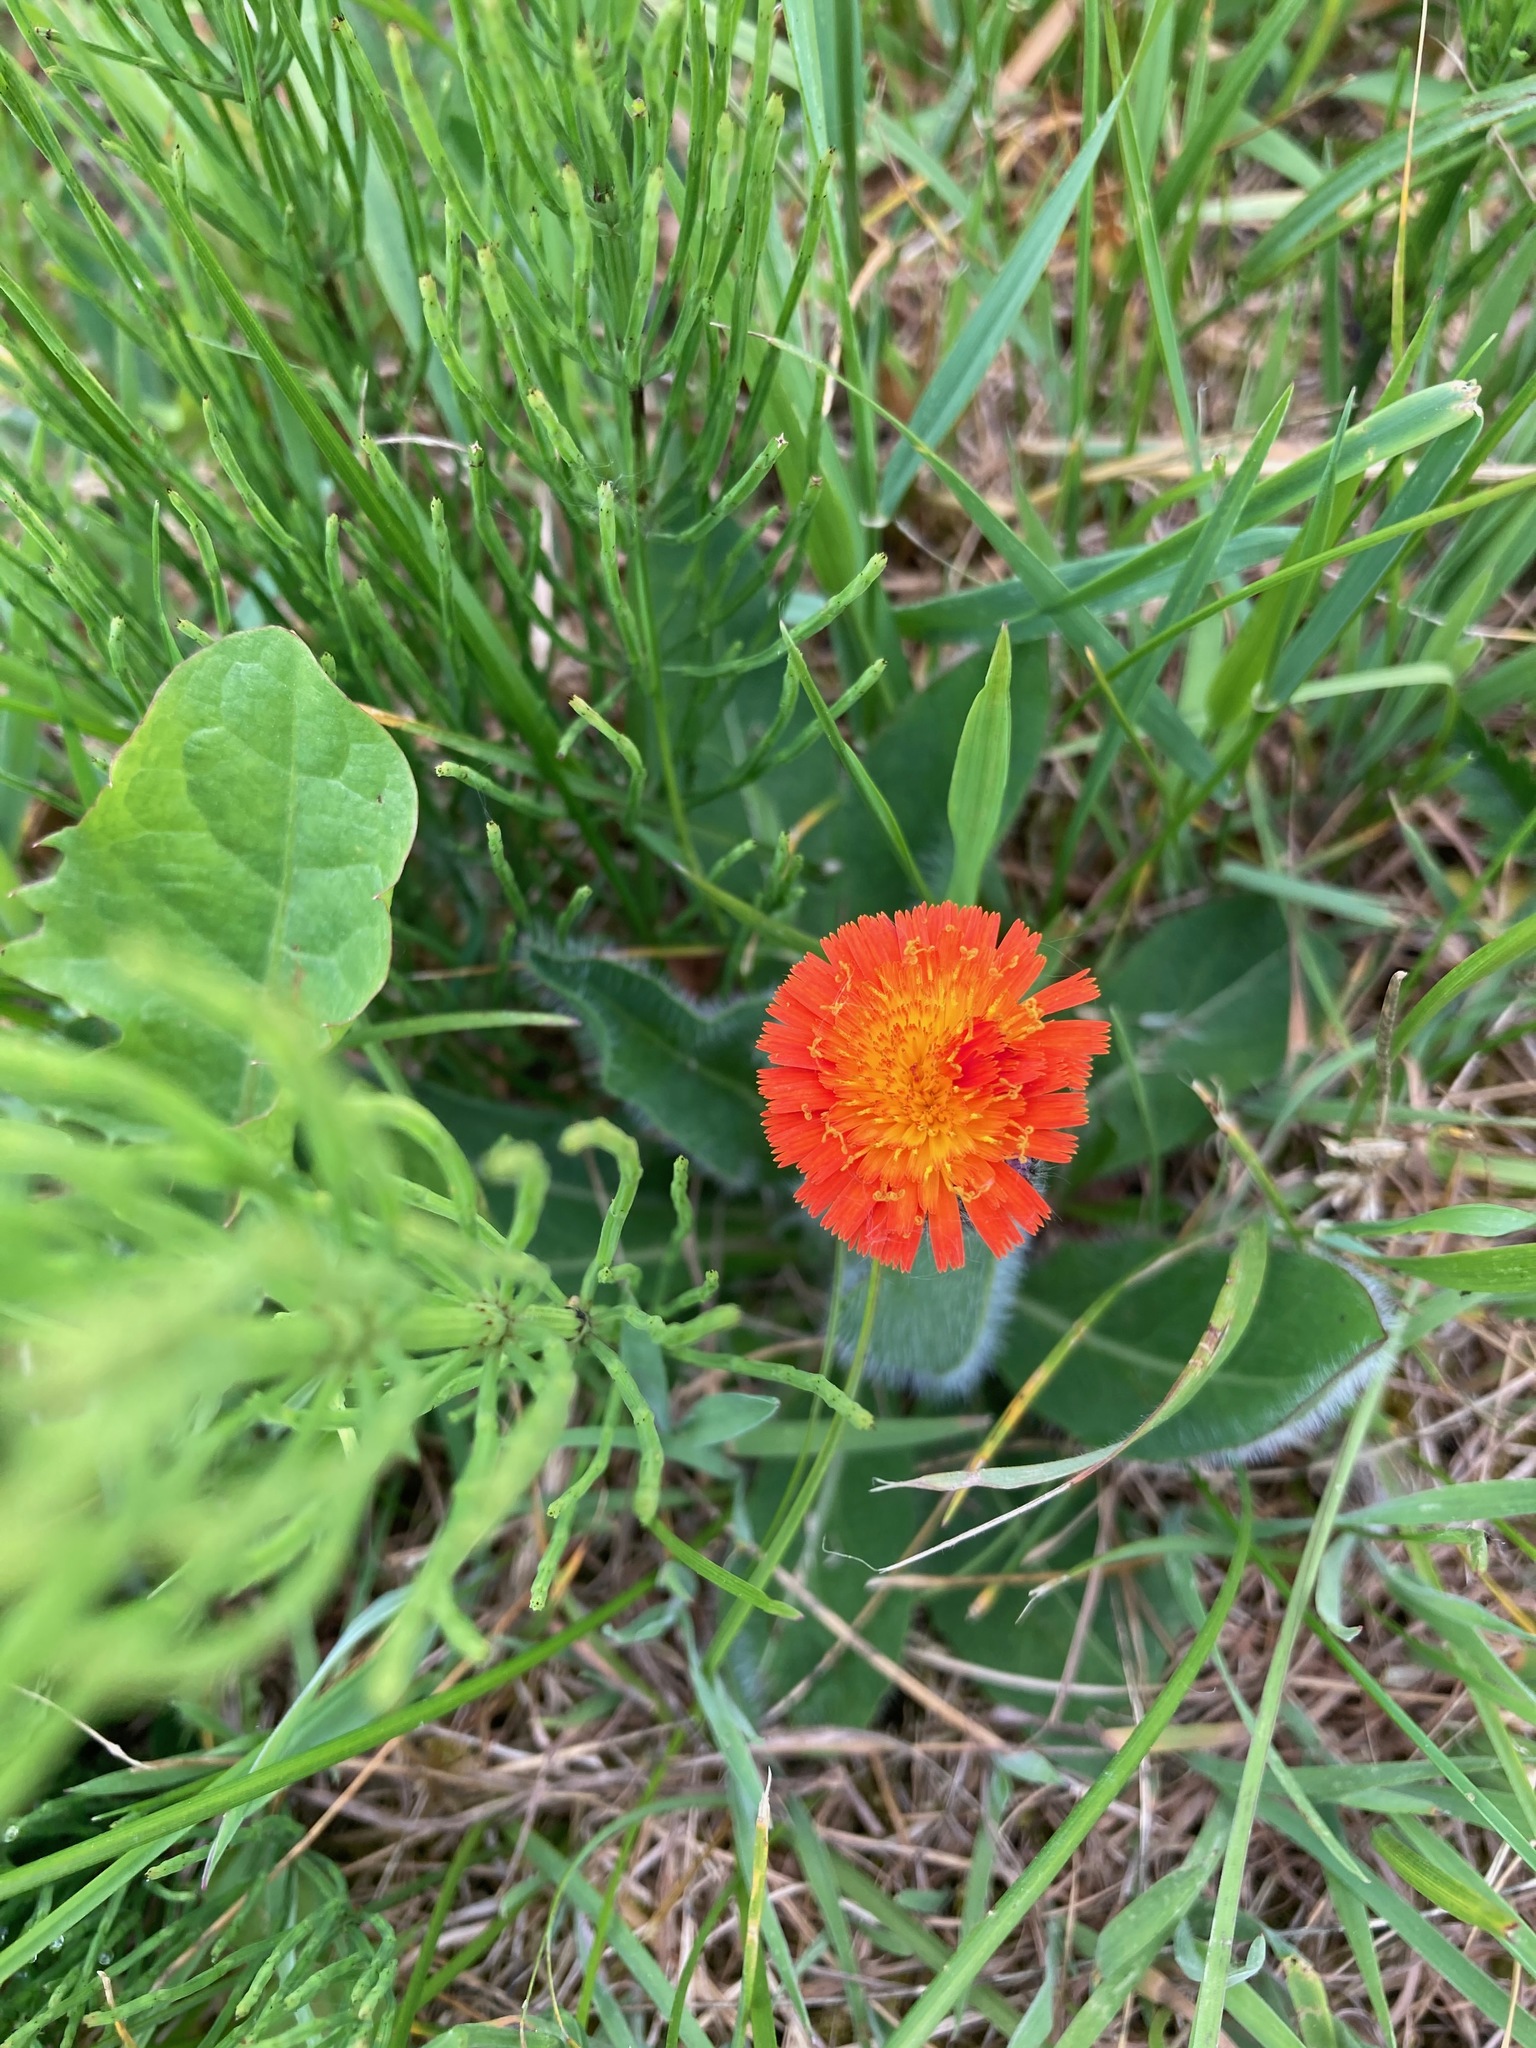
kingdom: Plantae
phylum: Tracheophyta
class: Magnoliopsida
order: Asterales
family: Asteraceae
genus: Pilosella
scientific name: Pilosella aurantiaca
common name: Fox-and-cubs
